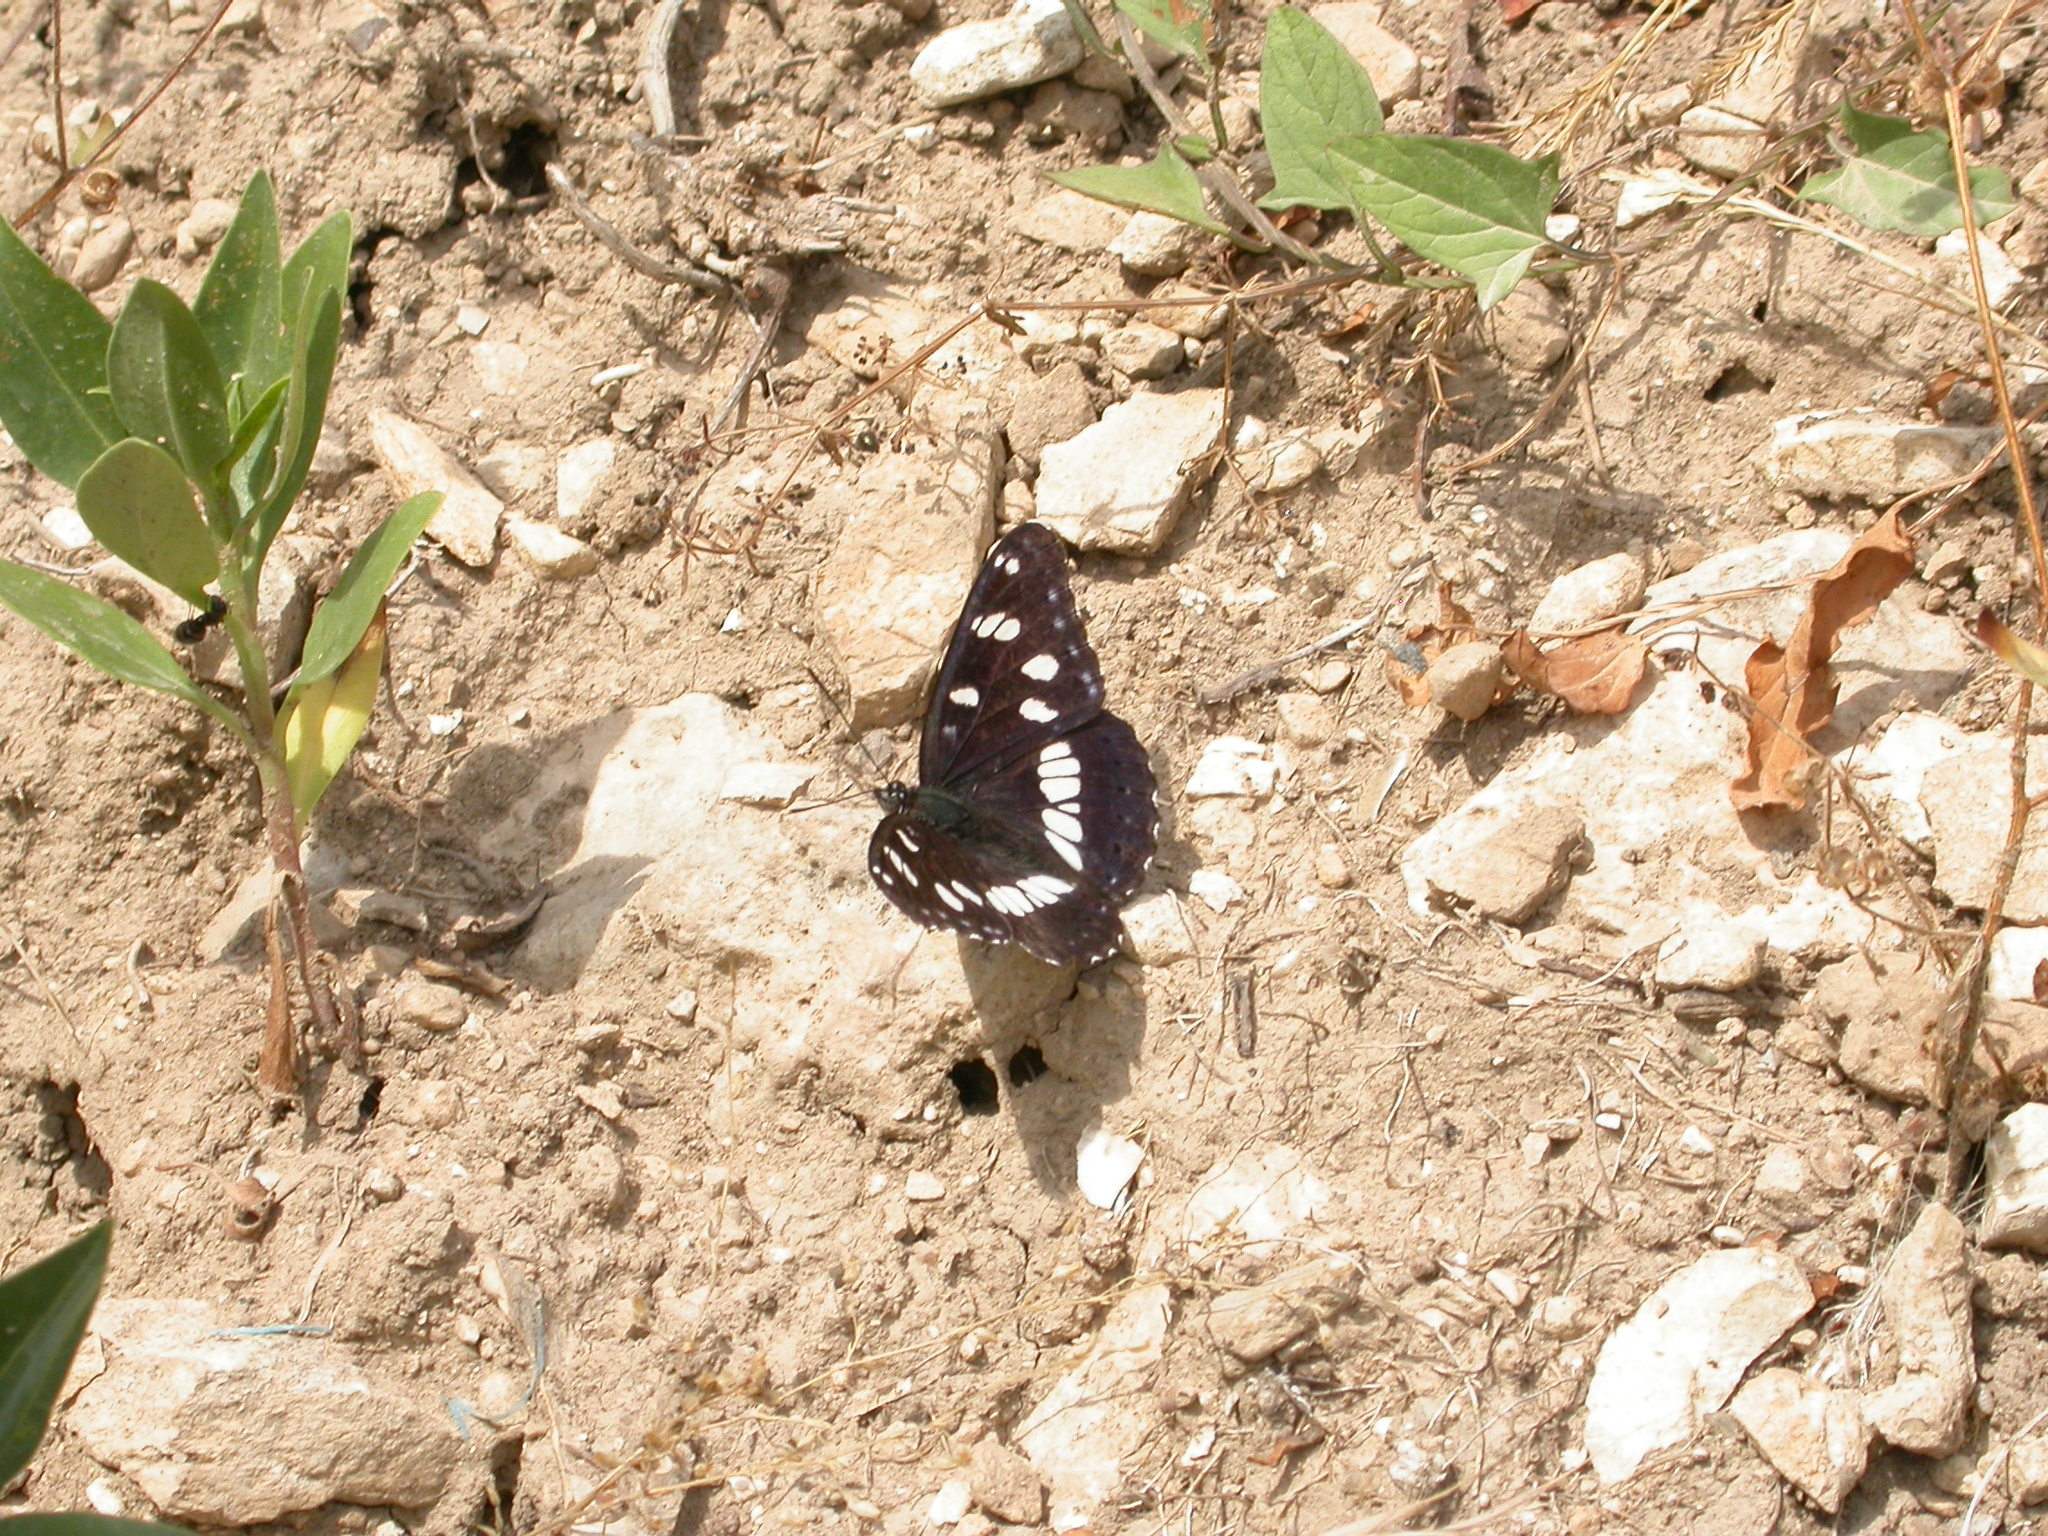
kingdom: Animalia
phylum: Arthropoda
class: Insecta
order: Lepidoptera
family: Nymphalidae
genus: Limenitis
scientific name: Limenitis reducta
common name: Southern white admiral
